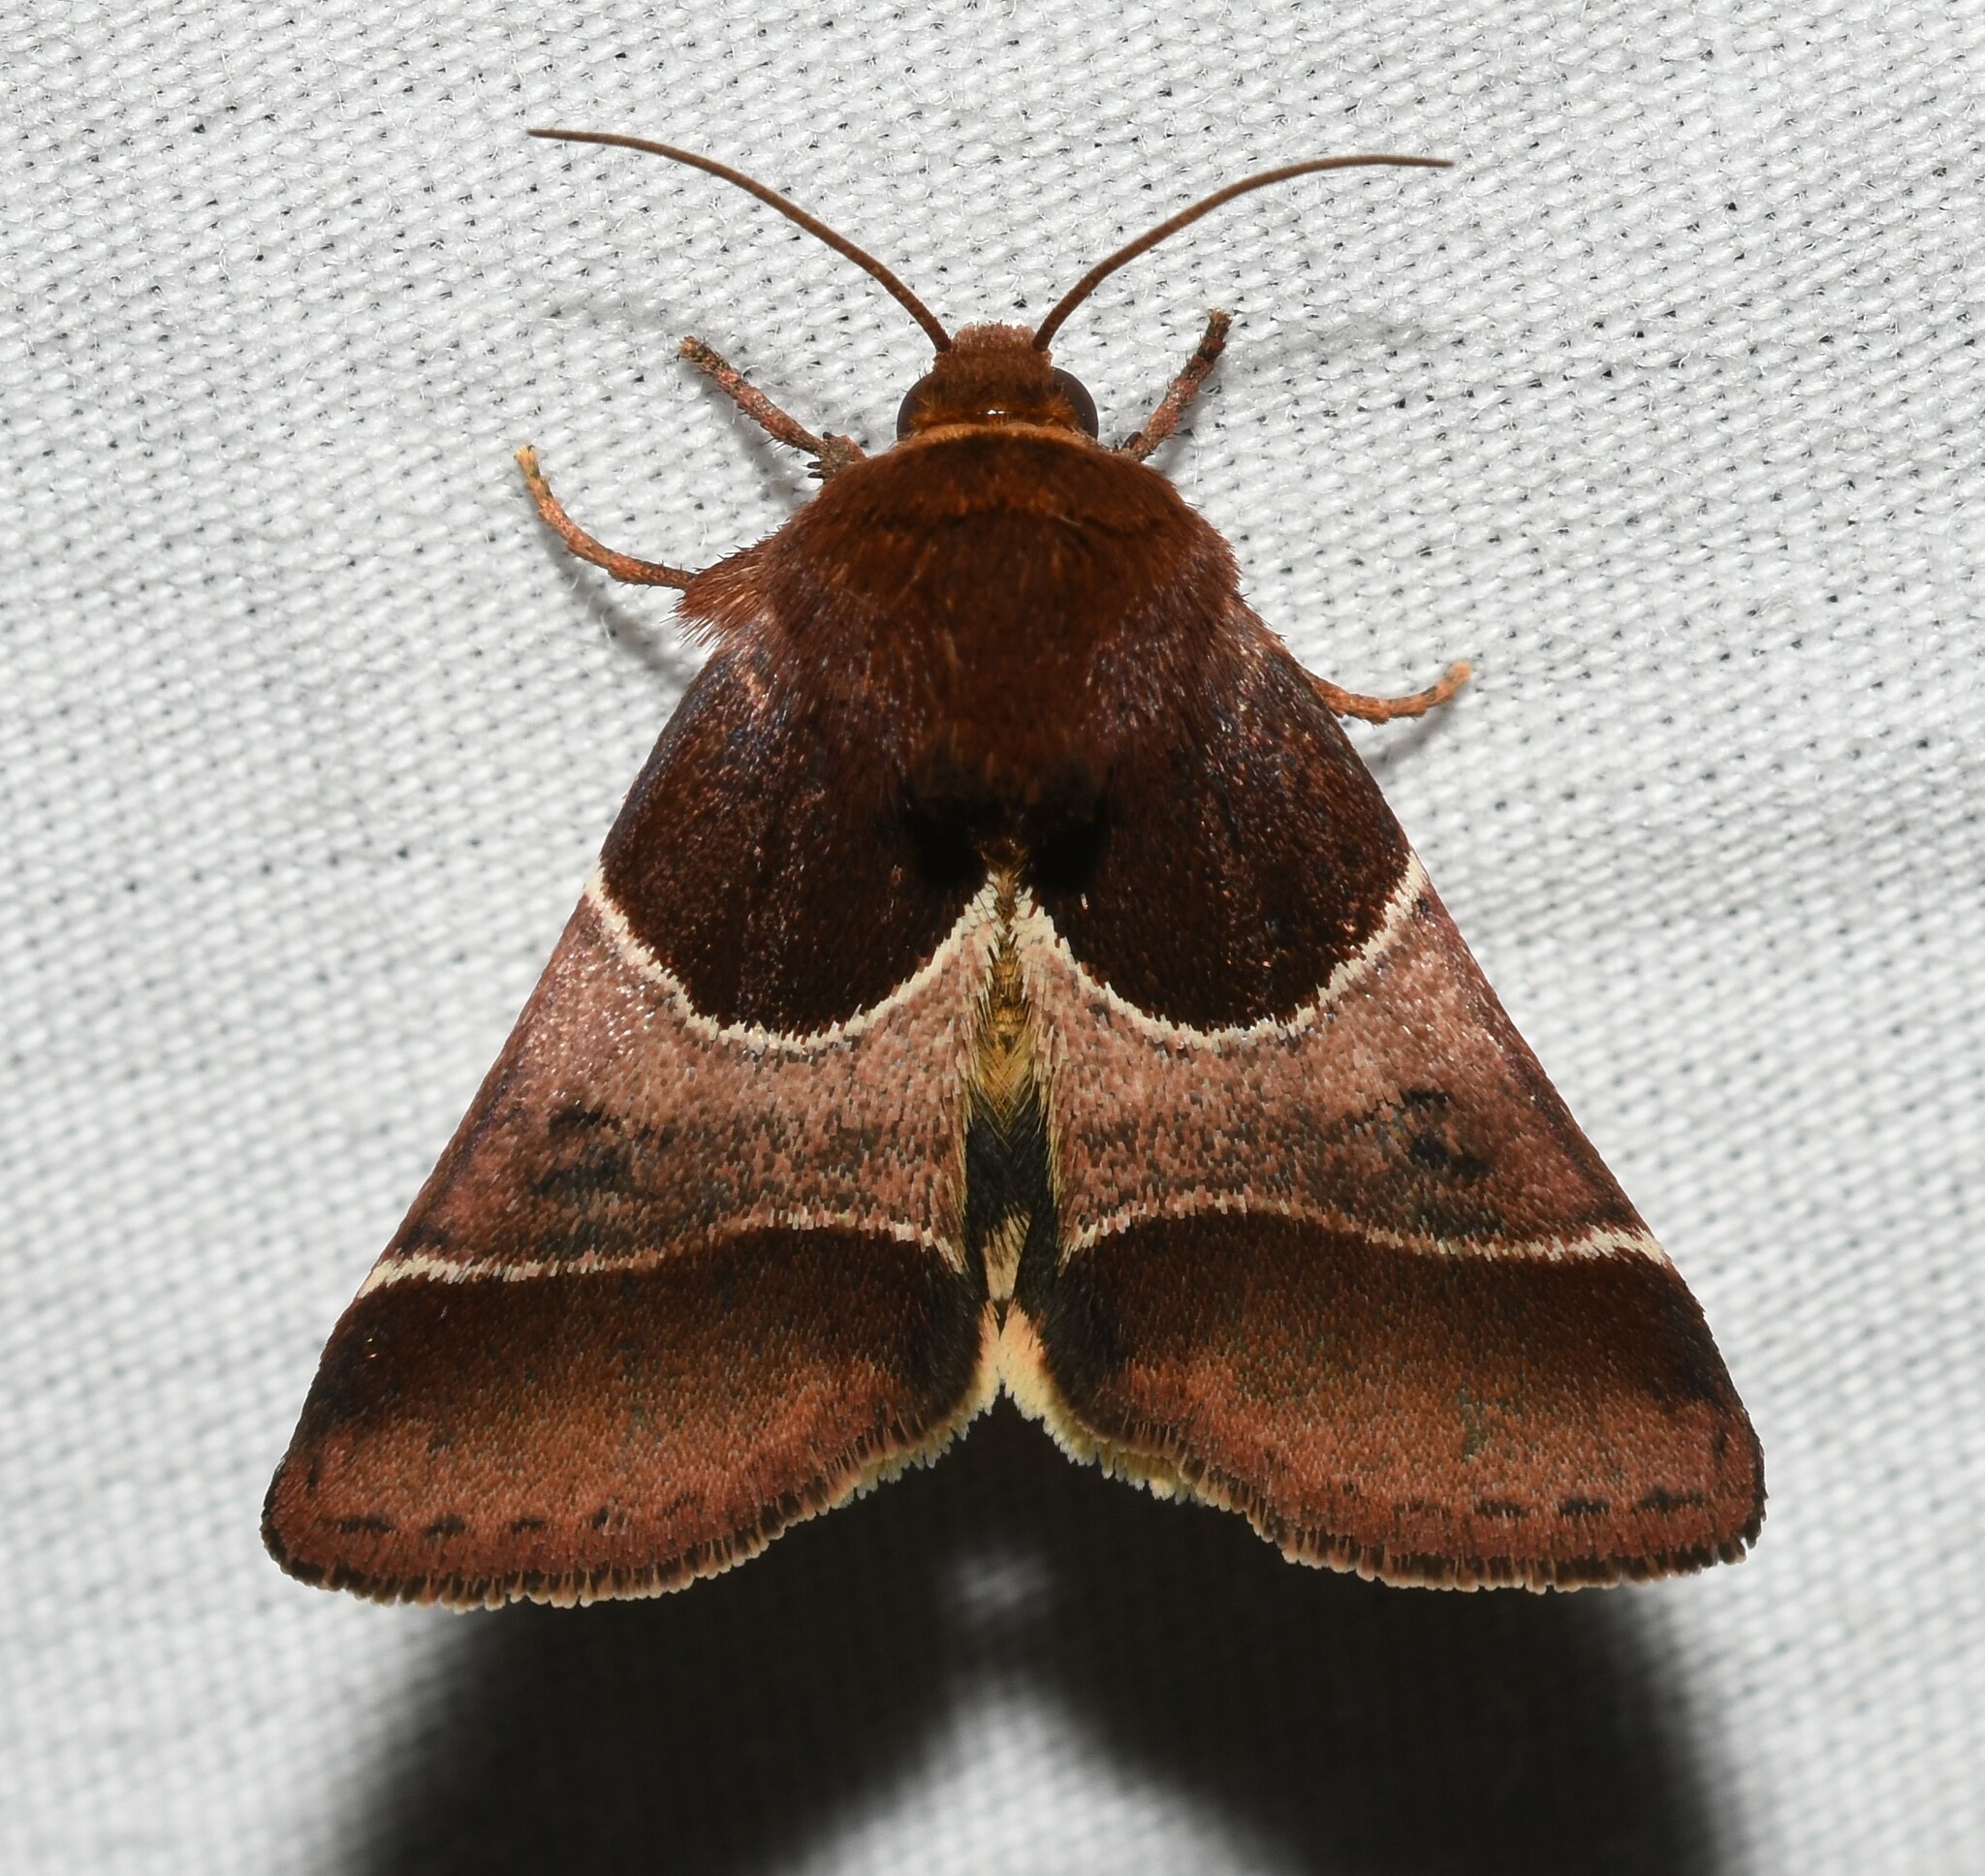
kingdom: Animalia
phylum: Arthropoda
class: Insecta
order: Lepidoptera
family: Noctuidae
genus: Schinia
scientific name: Schinia arcigera
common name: Arcigera flower moth
